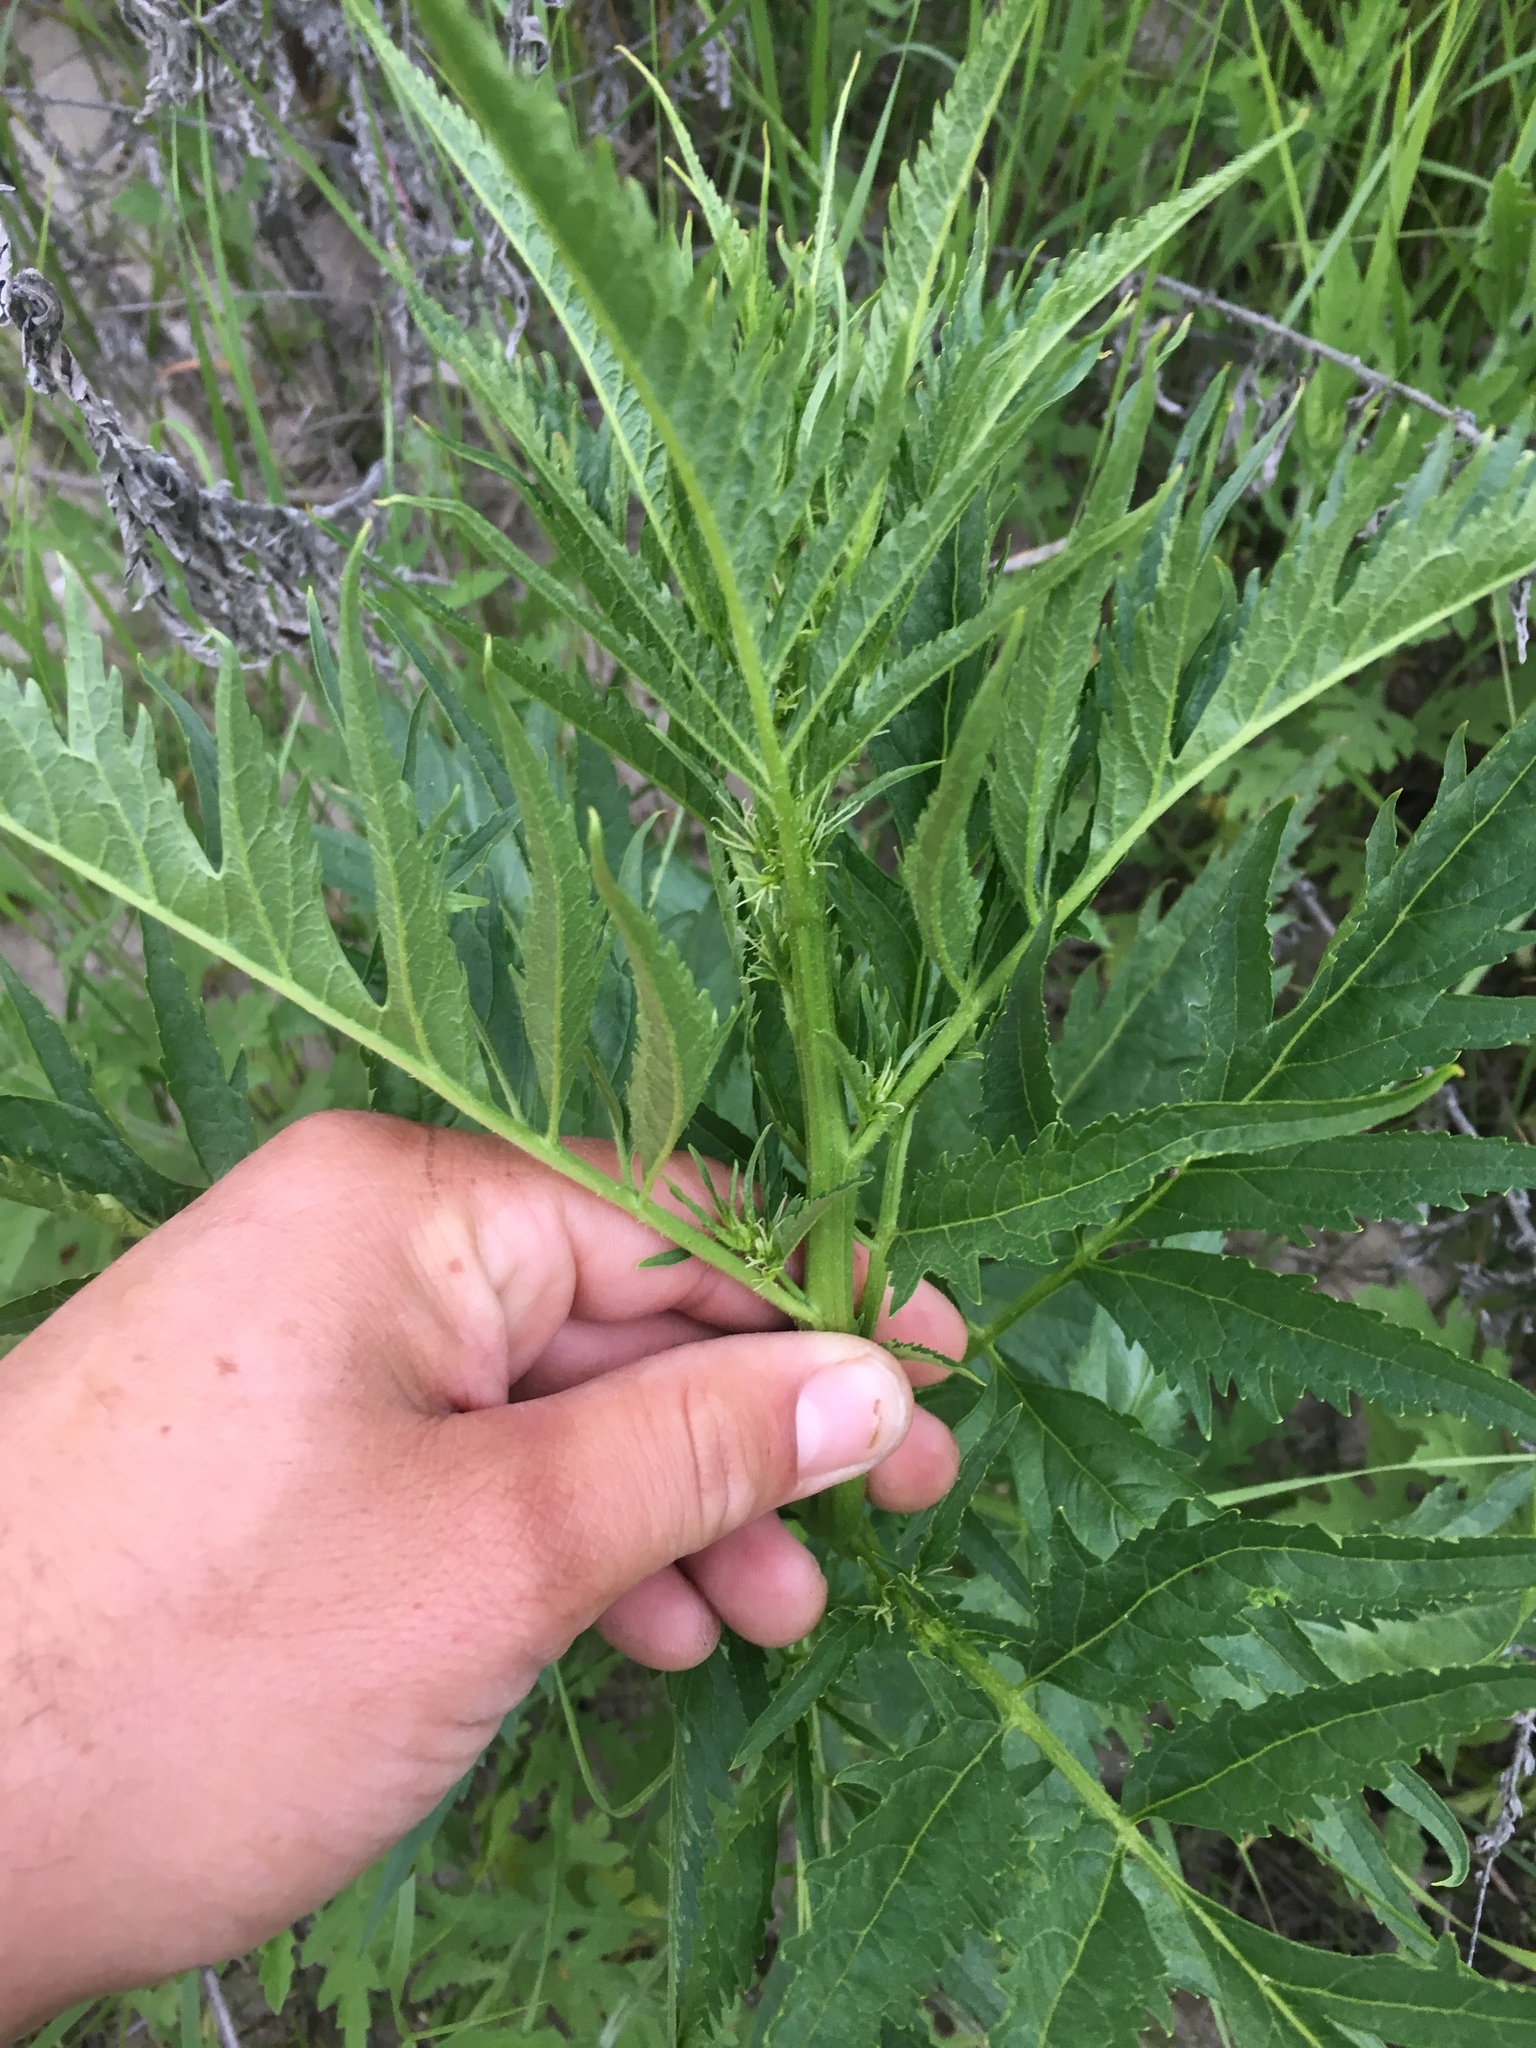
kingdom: Plantae
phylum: Tracheophyta
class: Magnoliopsida
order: Cucurbitales
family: Datiscaceae
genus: Datisca
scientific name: Datisca glomerata
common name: Durango-root
